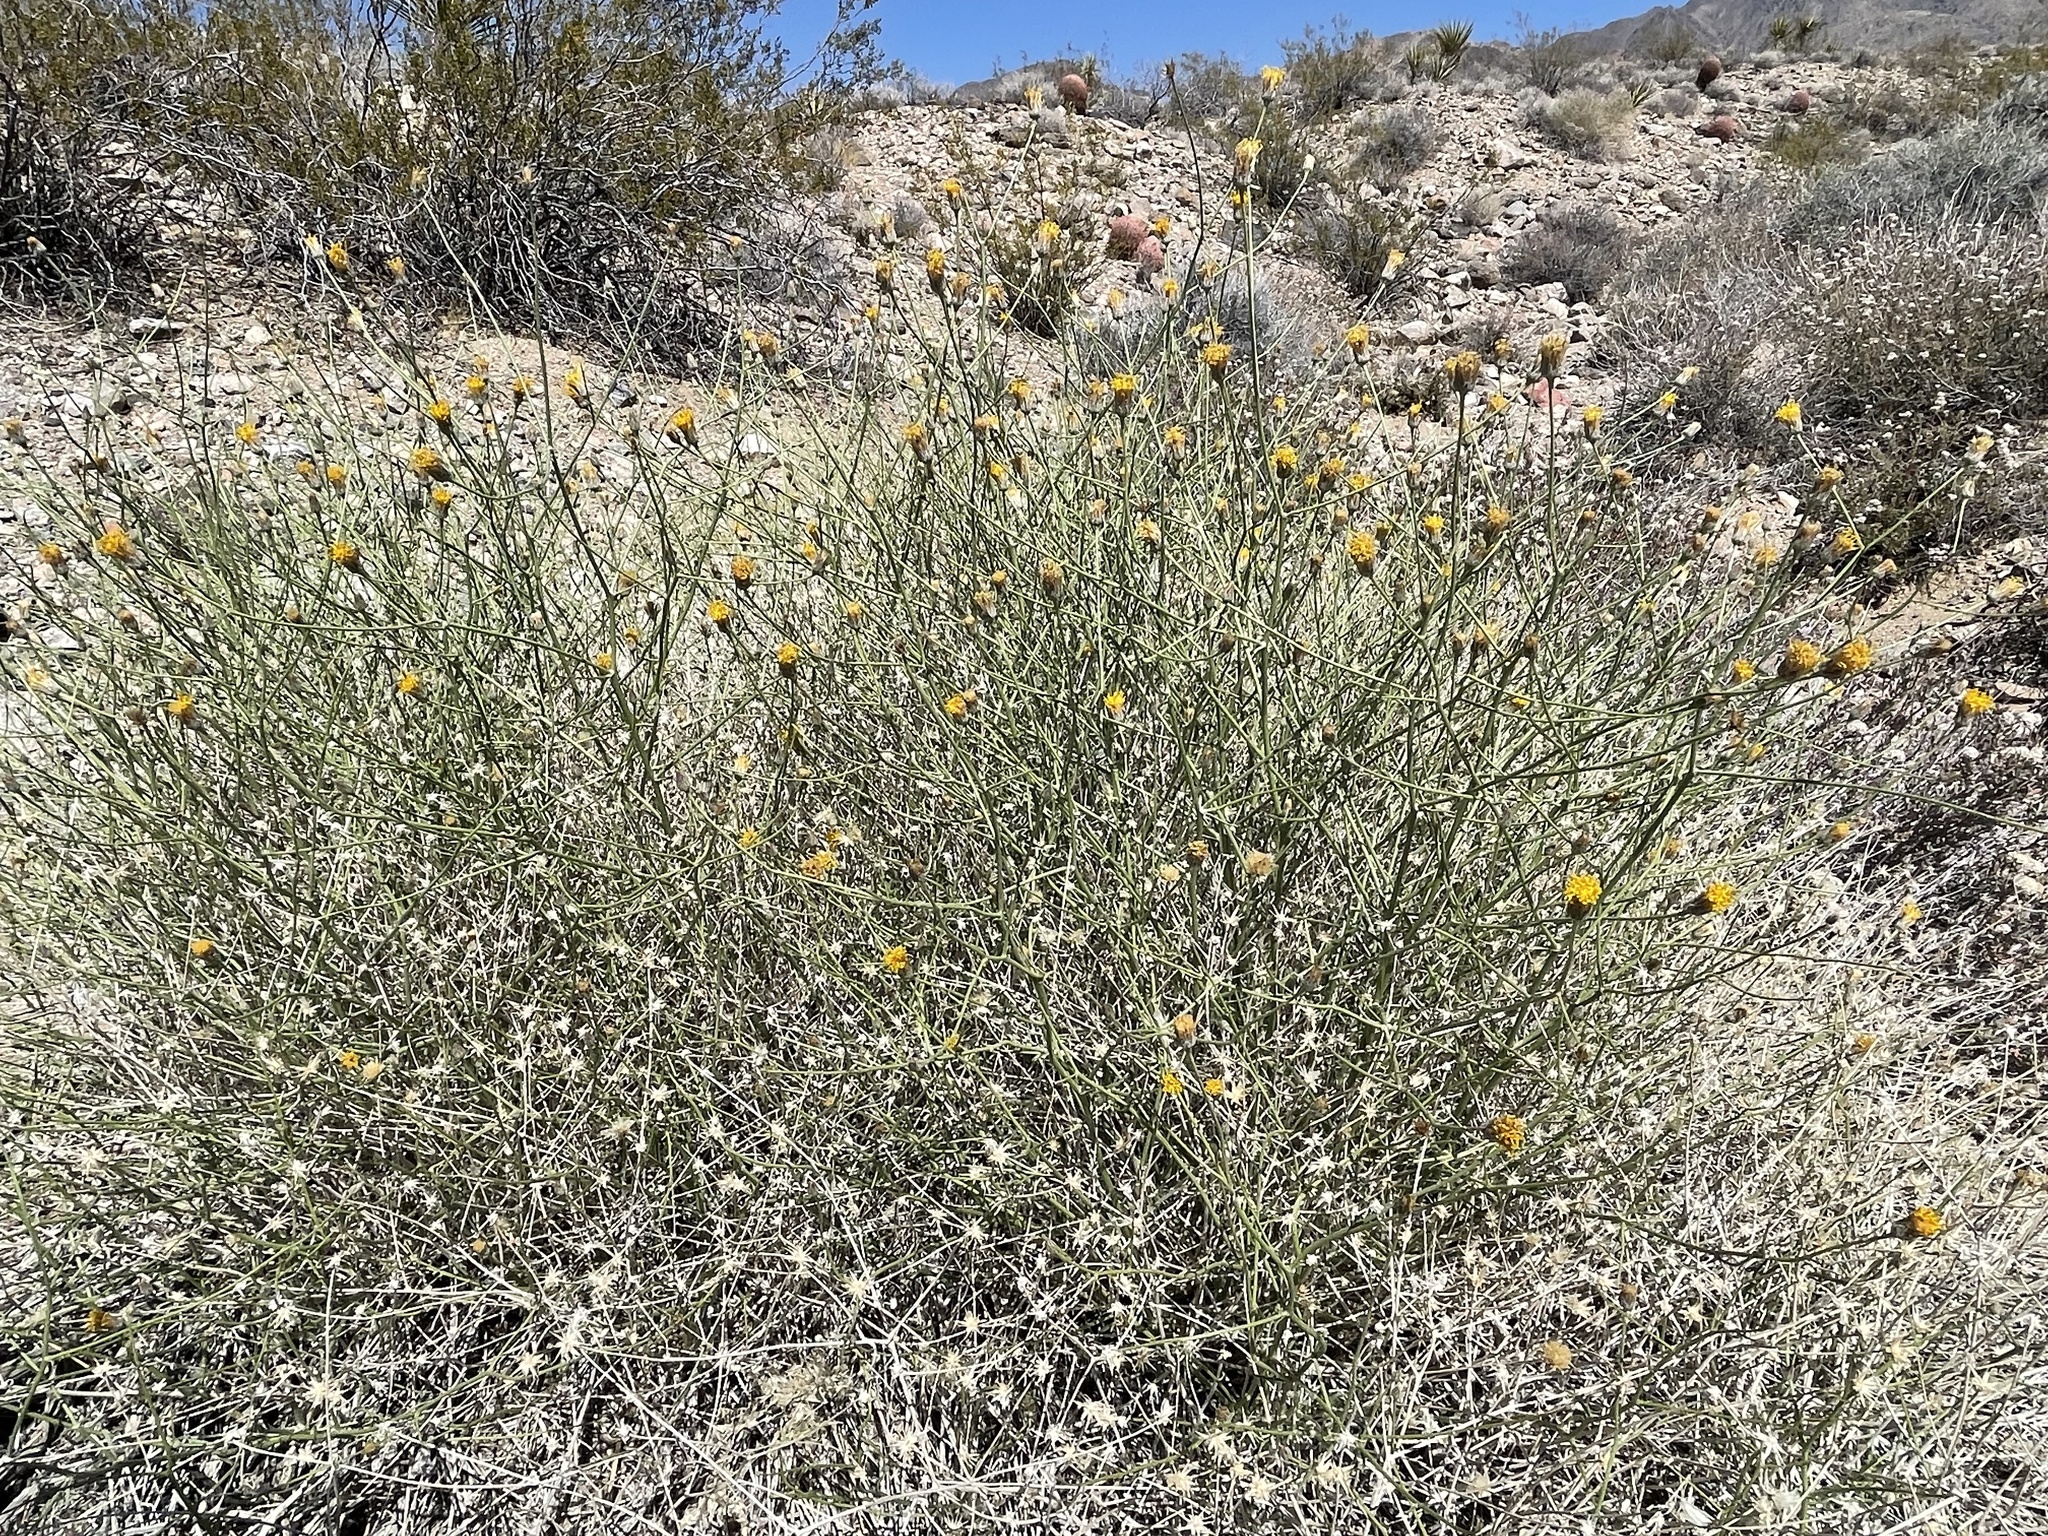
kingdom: Plantae
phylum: Tracheophyta
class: Magnoliopsida
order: Asterales
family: Asteraceae
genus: Bebbia
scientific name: Bebbia juncea
